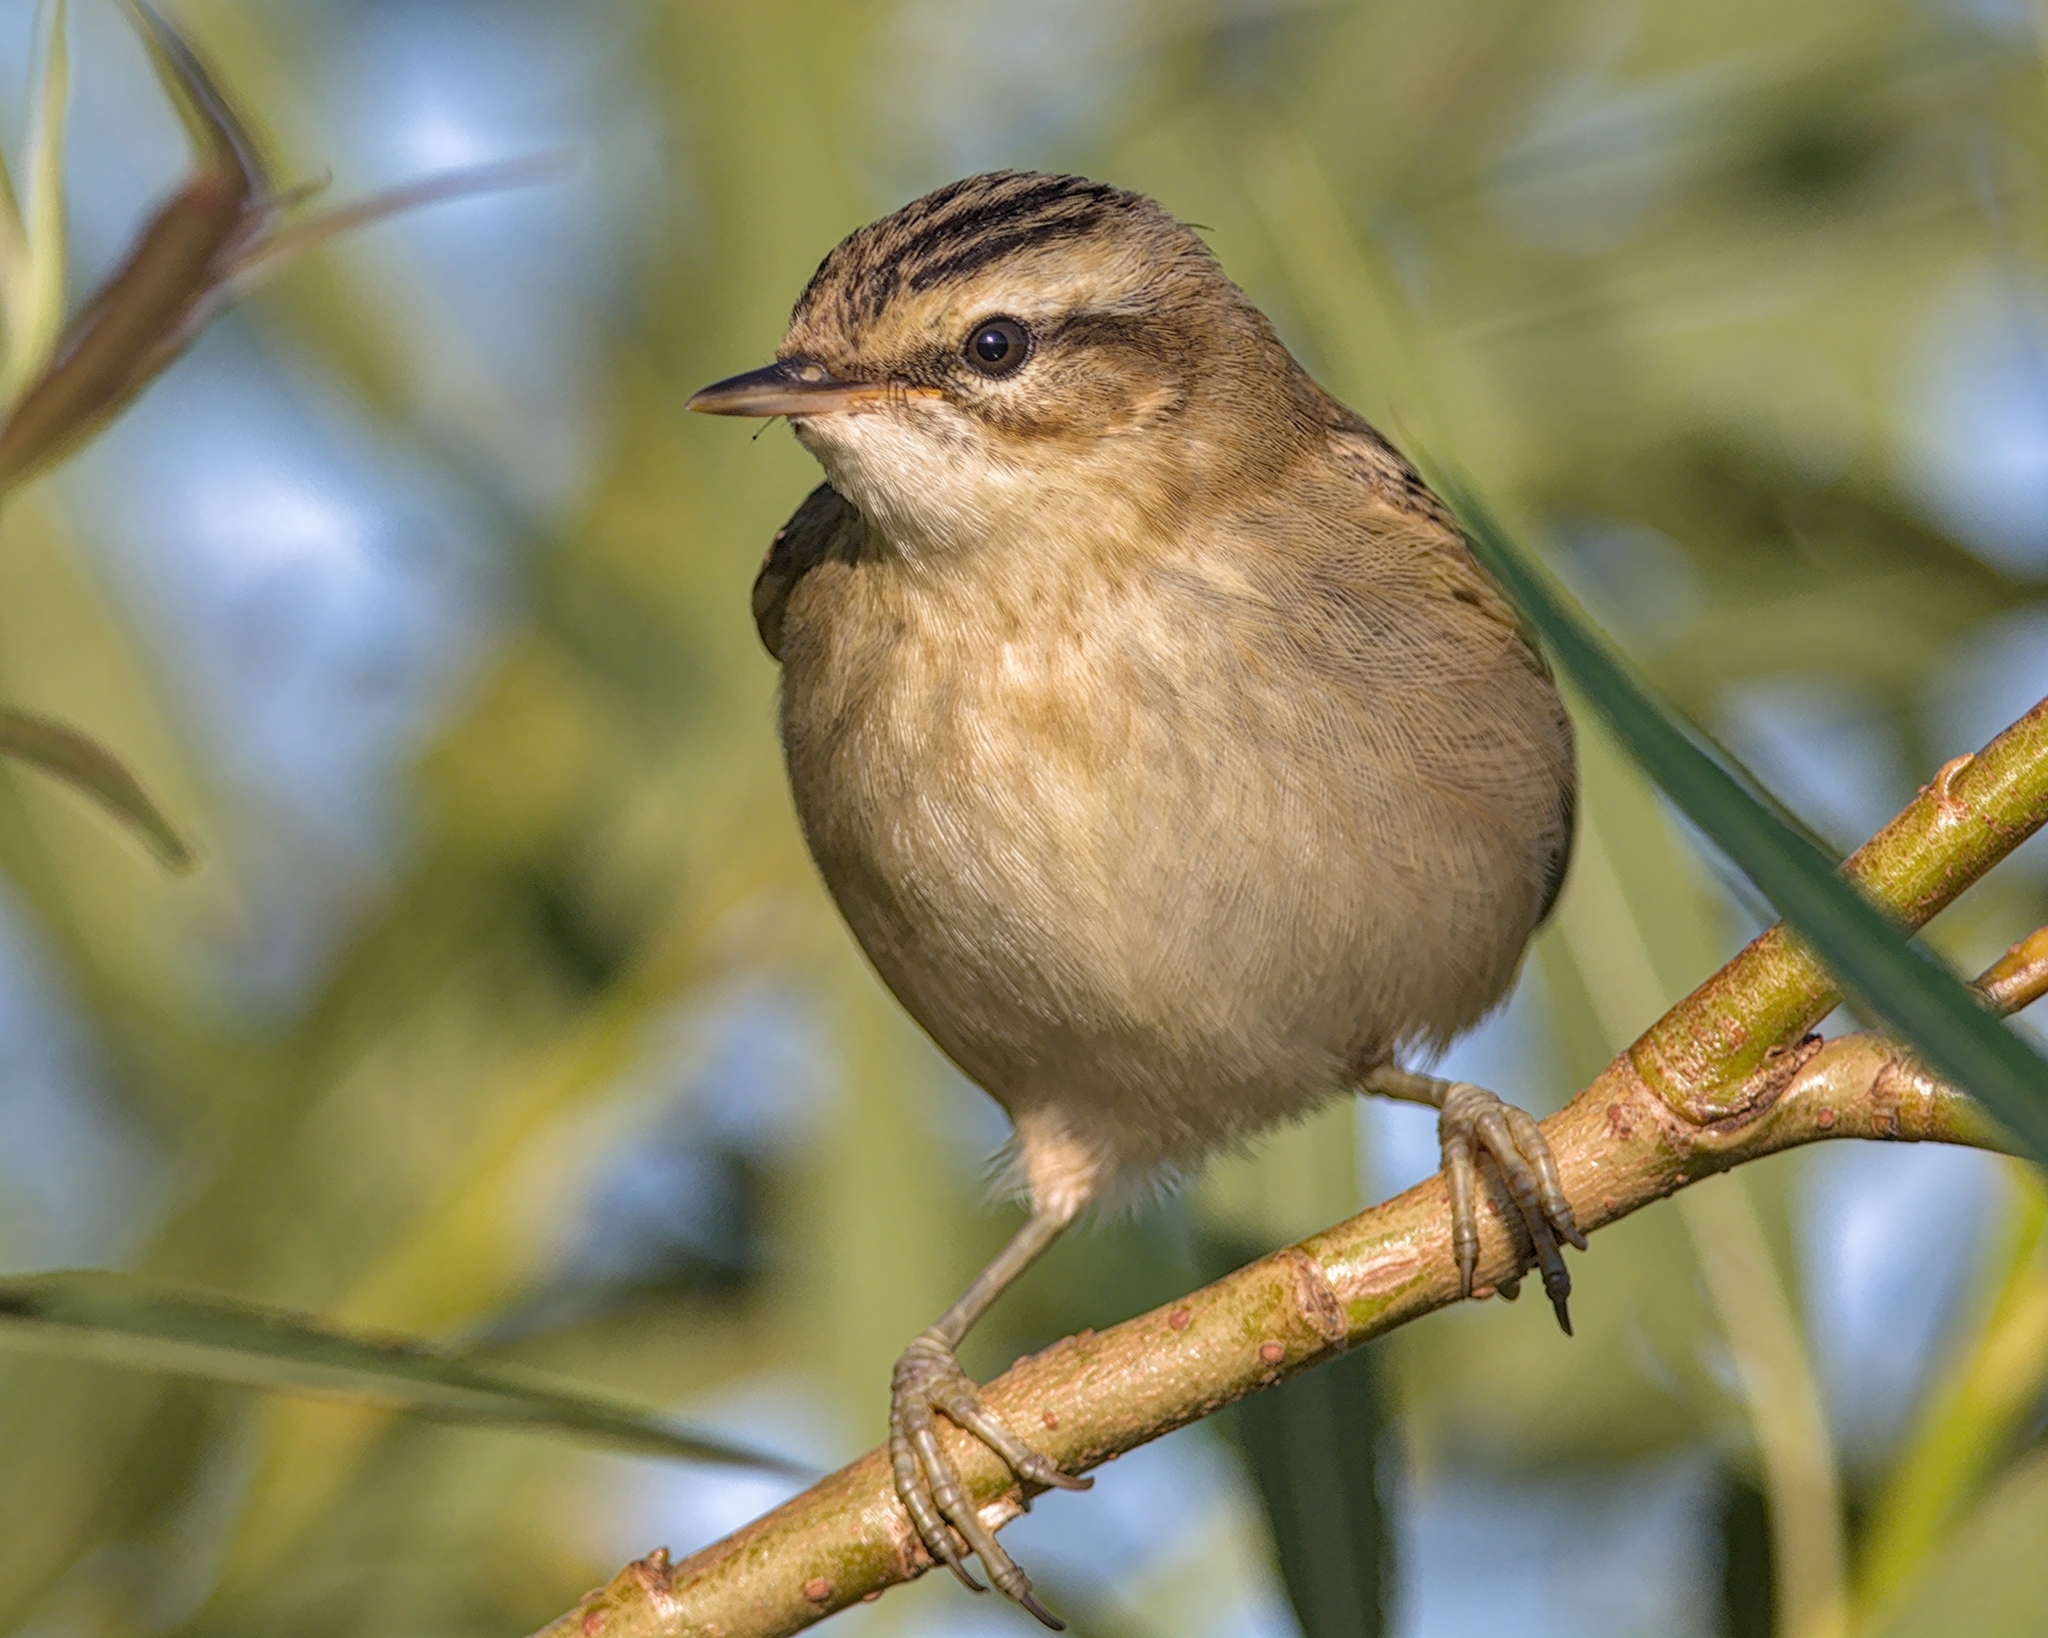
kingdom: Animalia
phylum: Chordata
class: Aves
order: Passeriformes
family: Acrocephalidae
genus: Acrocephalus
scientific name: Acrocephalus schoenobaenus
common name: Sedge warbler
